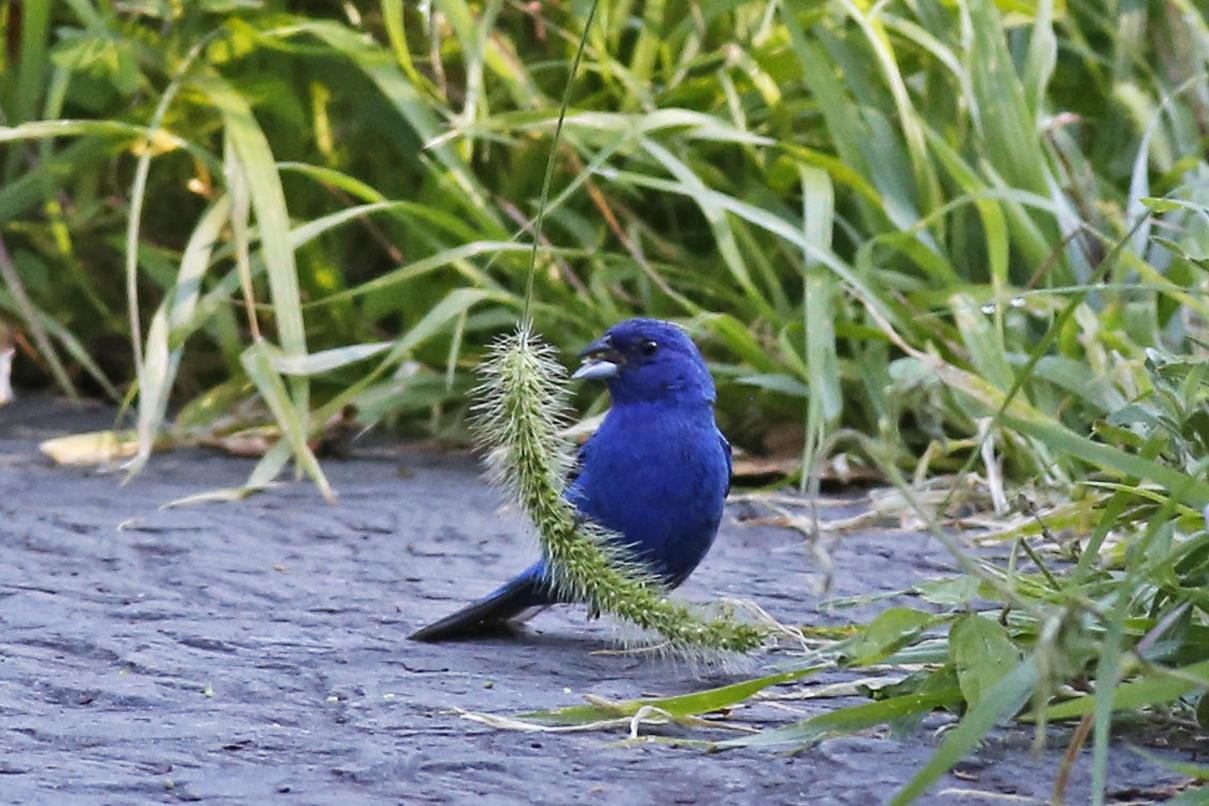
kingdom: Animalia
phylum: Chordata
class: Aves
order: Passeriformes
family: Cardinalidae
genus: Passerina
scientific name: Passerina cyanea
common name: Indigo bunting
